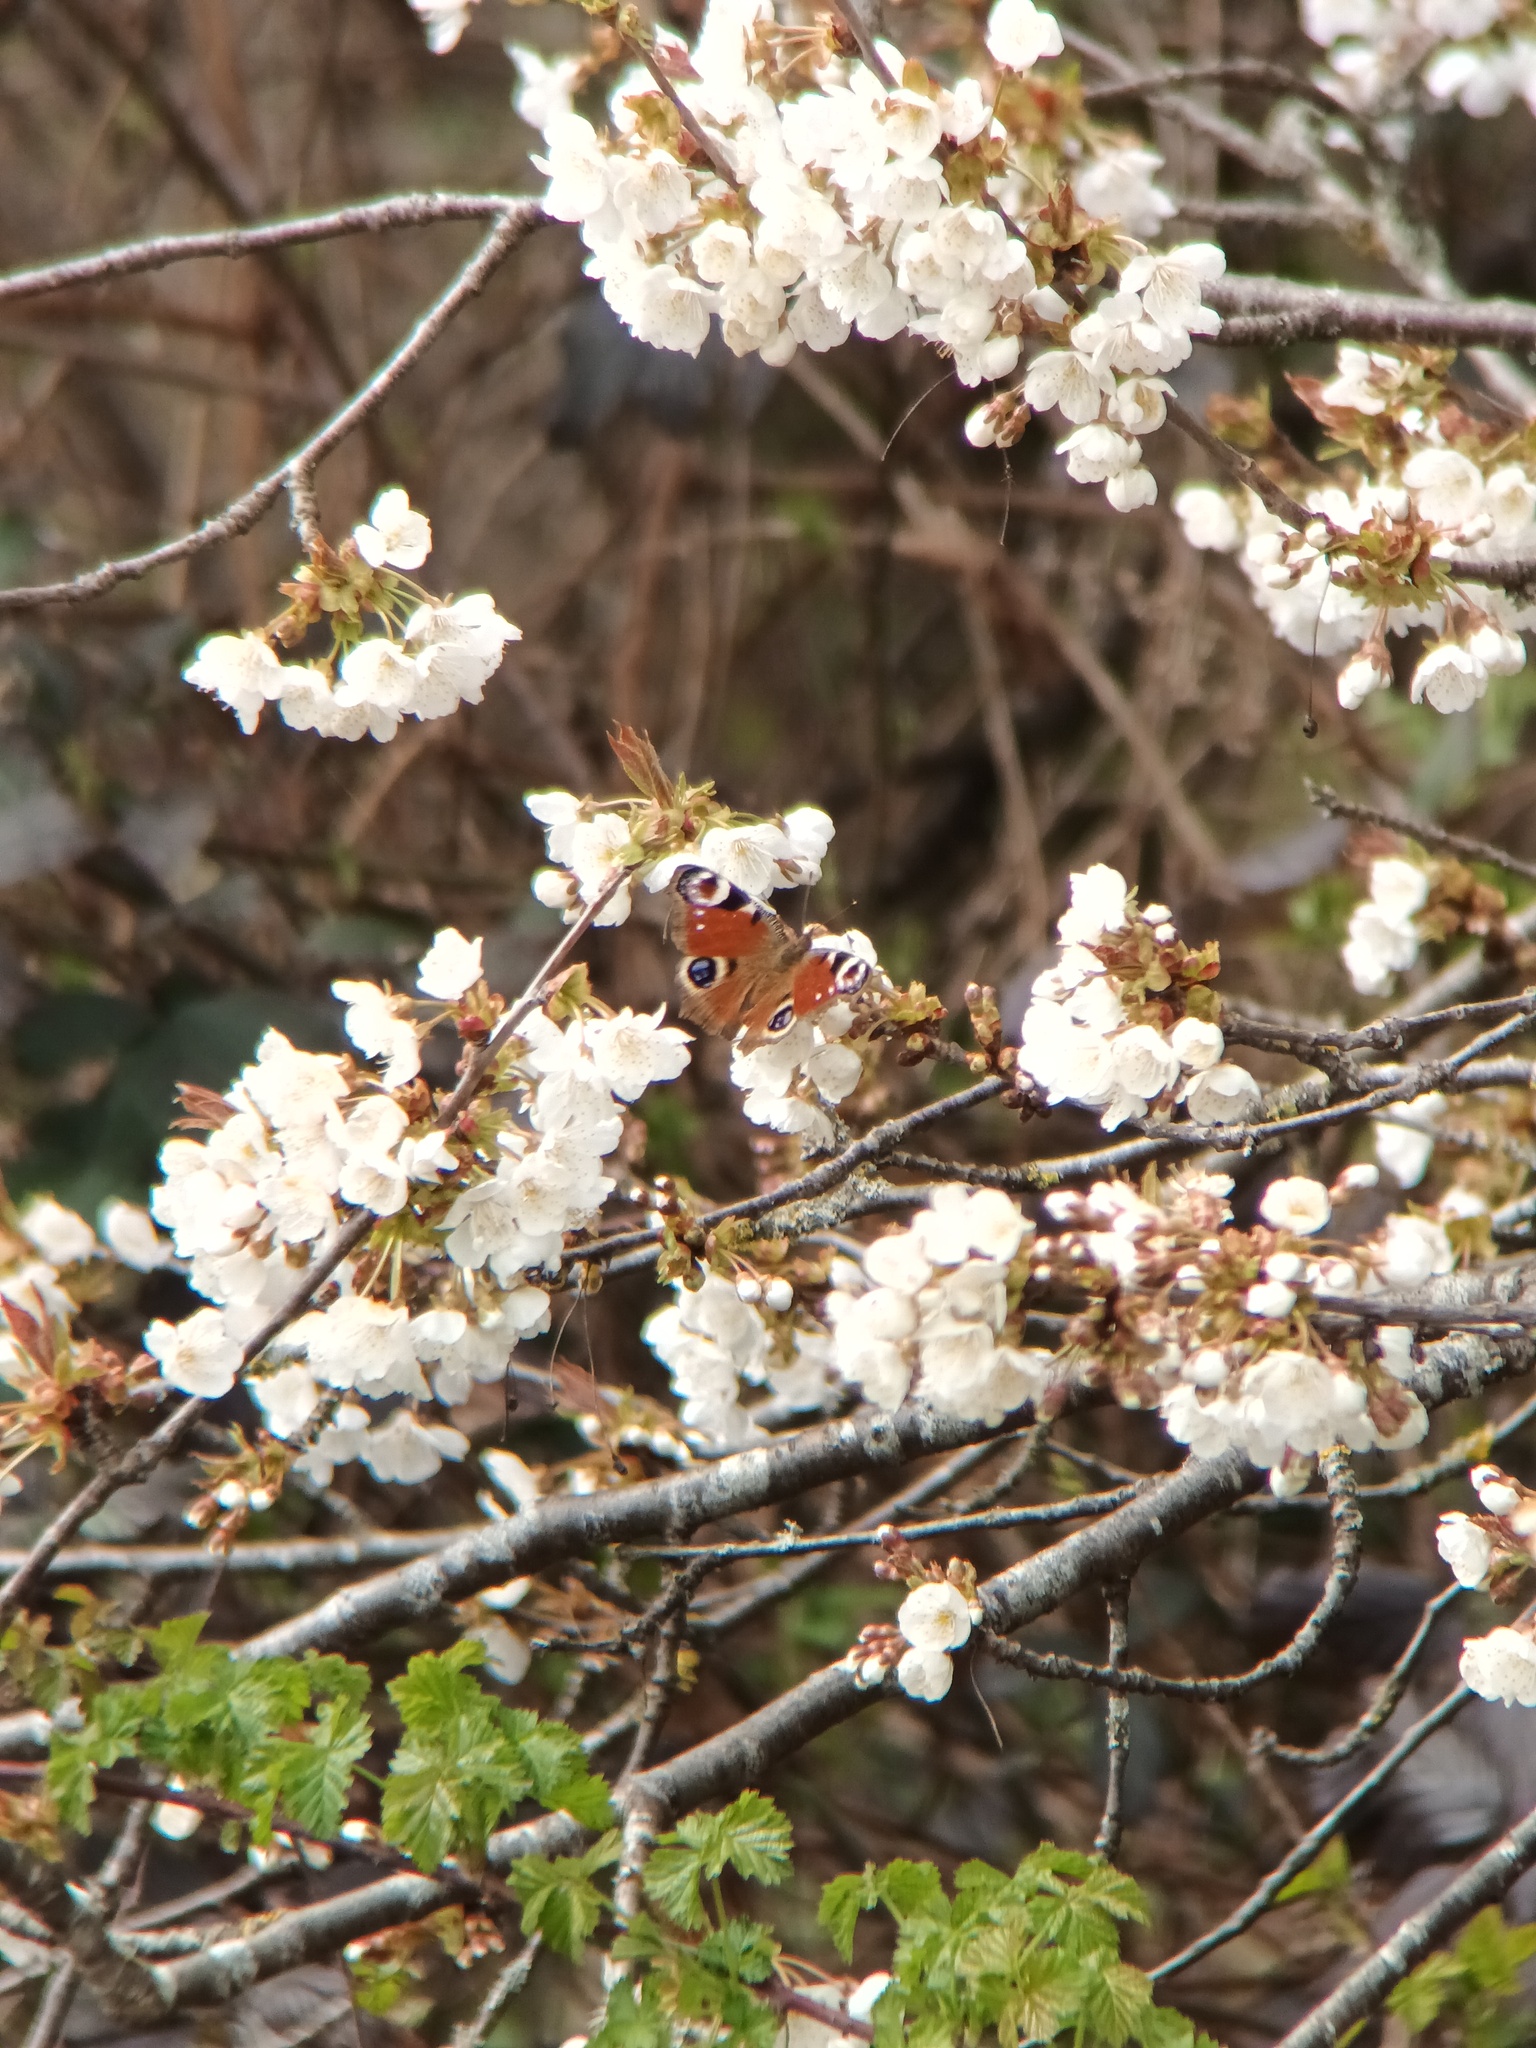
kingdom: Animalia
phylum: Arthropoda
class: Insecta
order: Lepidoptera
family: Nymphalidae
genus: Aglais
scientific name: Aglais io
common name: Peacock
